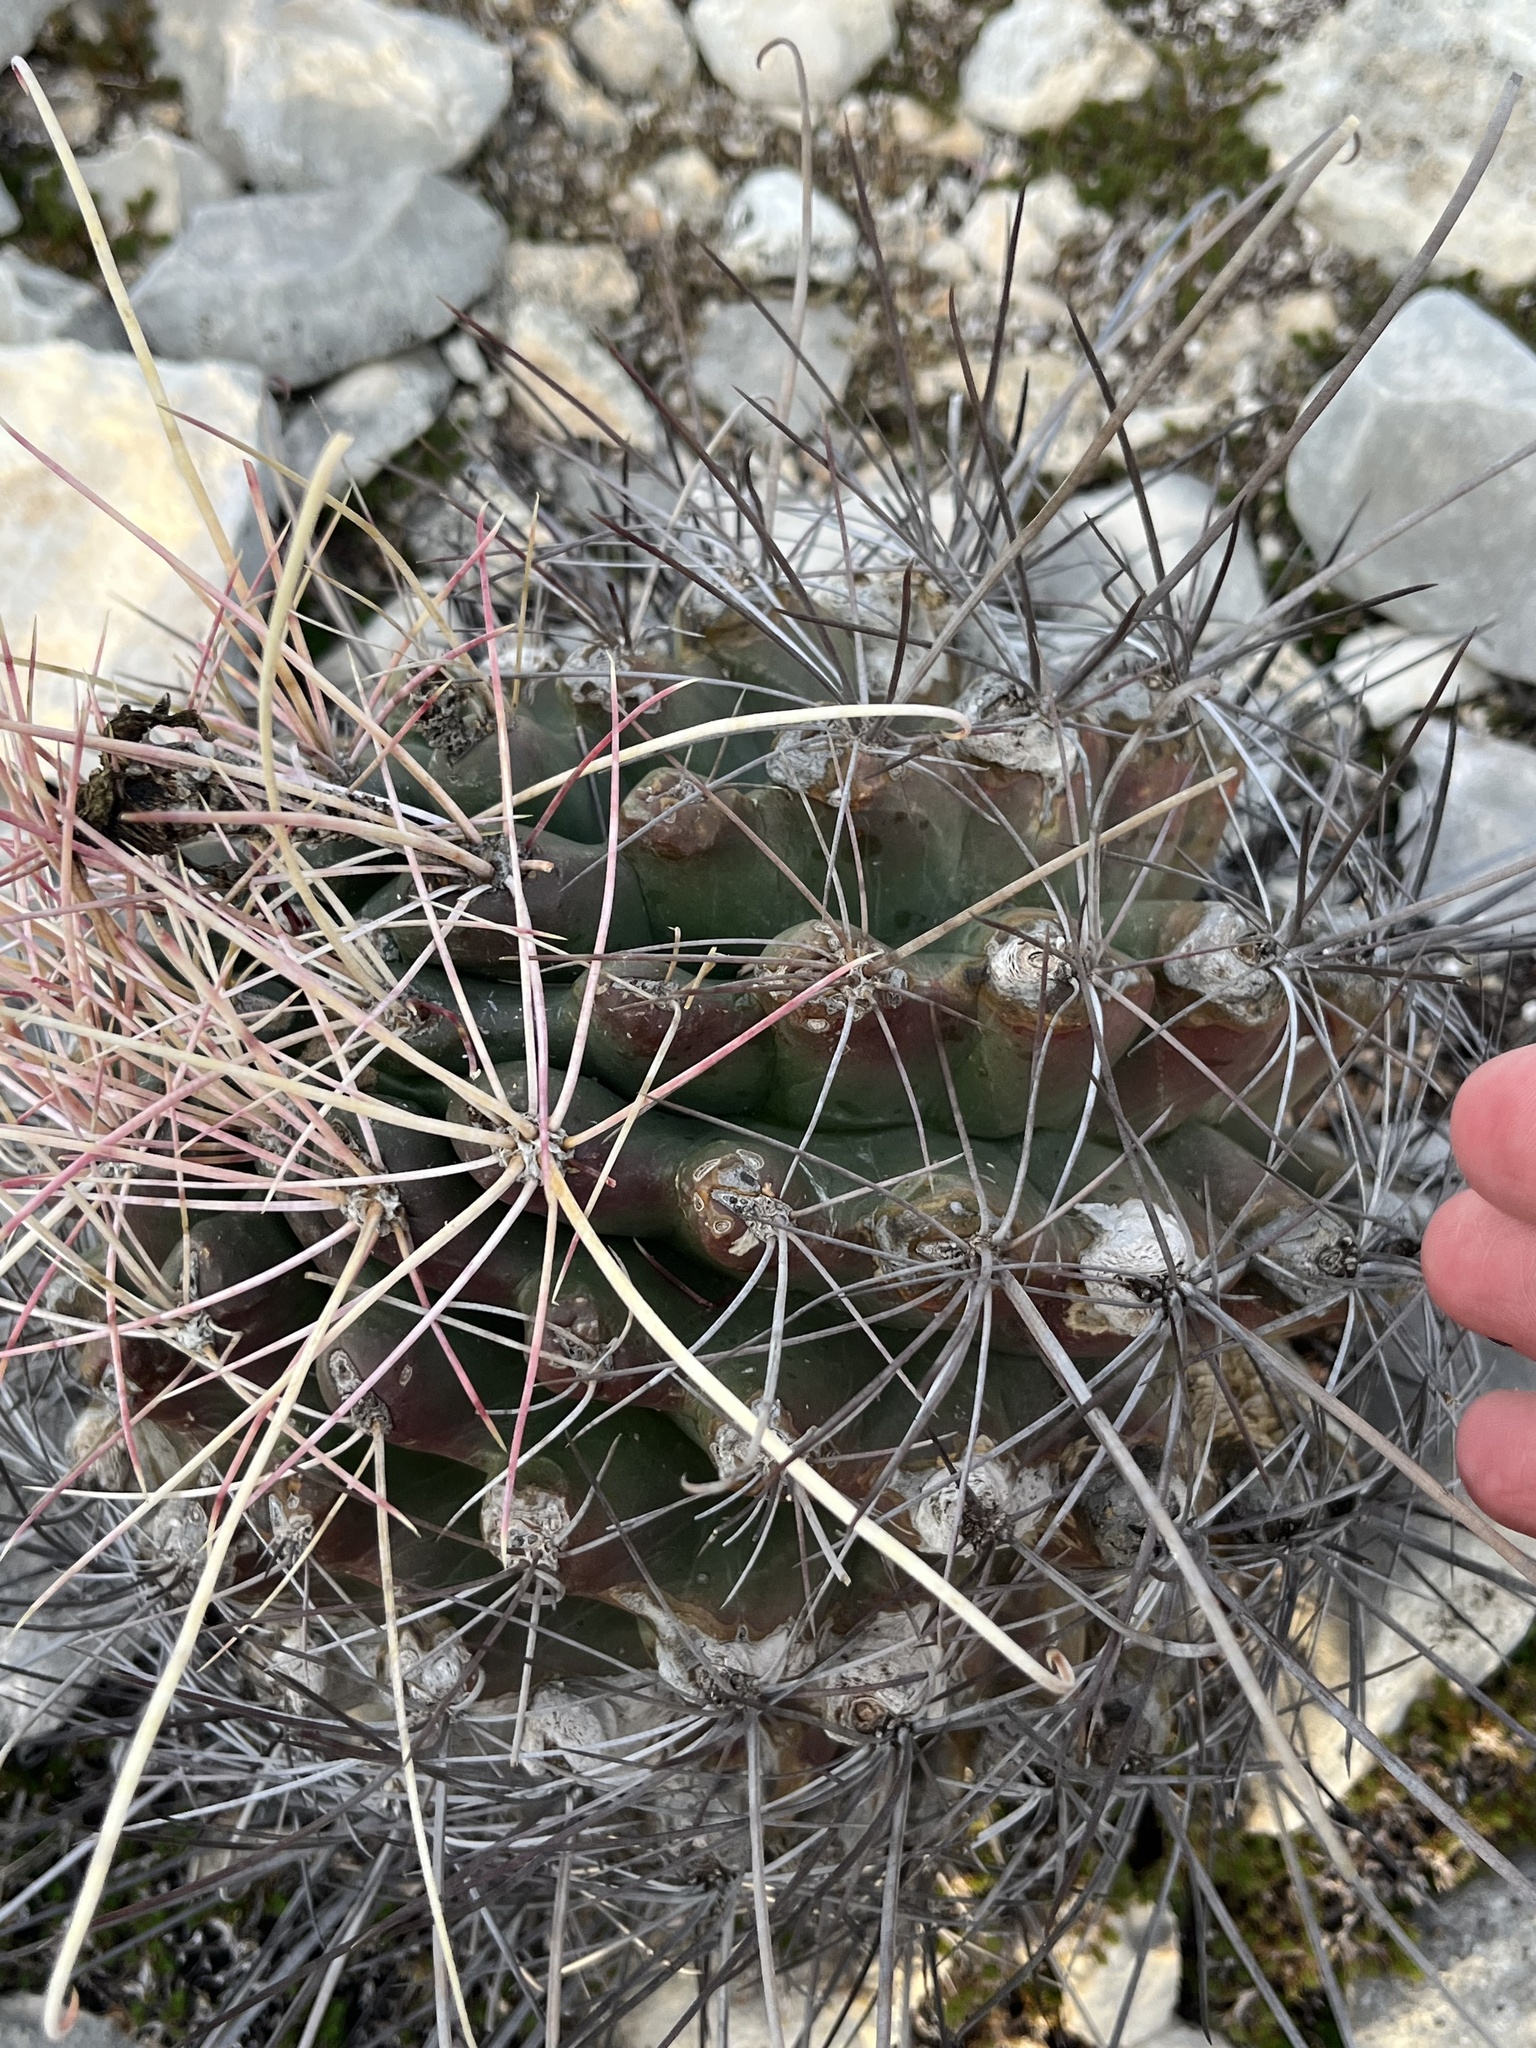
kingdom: Plantae
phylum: Tracheophyta
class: Magnoliopsida
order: Caryophyllales
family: Cactaceae
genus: Bisnaga
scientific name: Bisnaga hamatacantha
